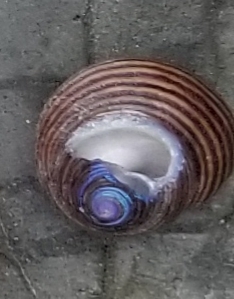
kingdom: Animalia
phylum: Mollusca
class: Gastropoda
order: Trochida
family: Calliostomatidae
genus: Calliostoma
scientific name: Calliostoma ligatum
